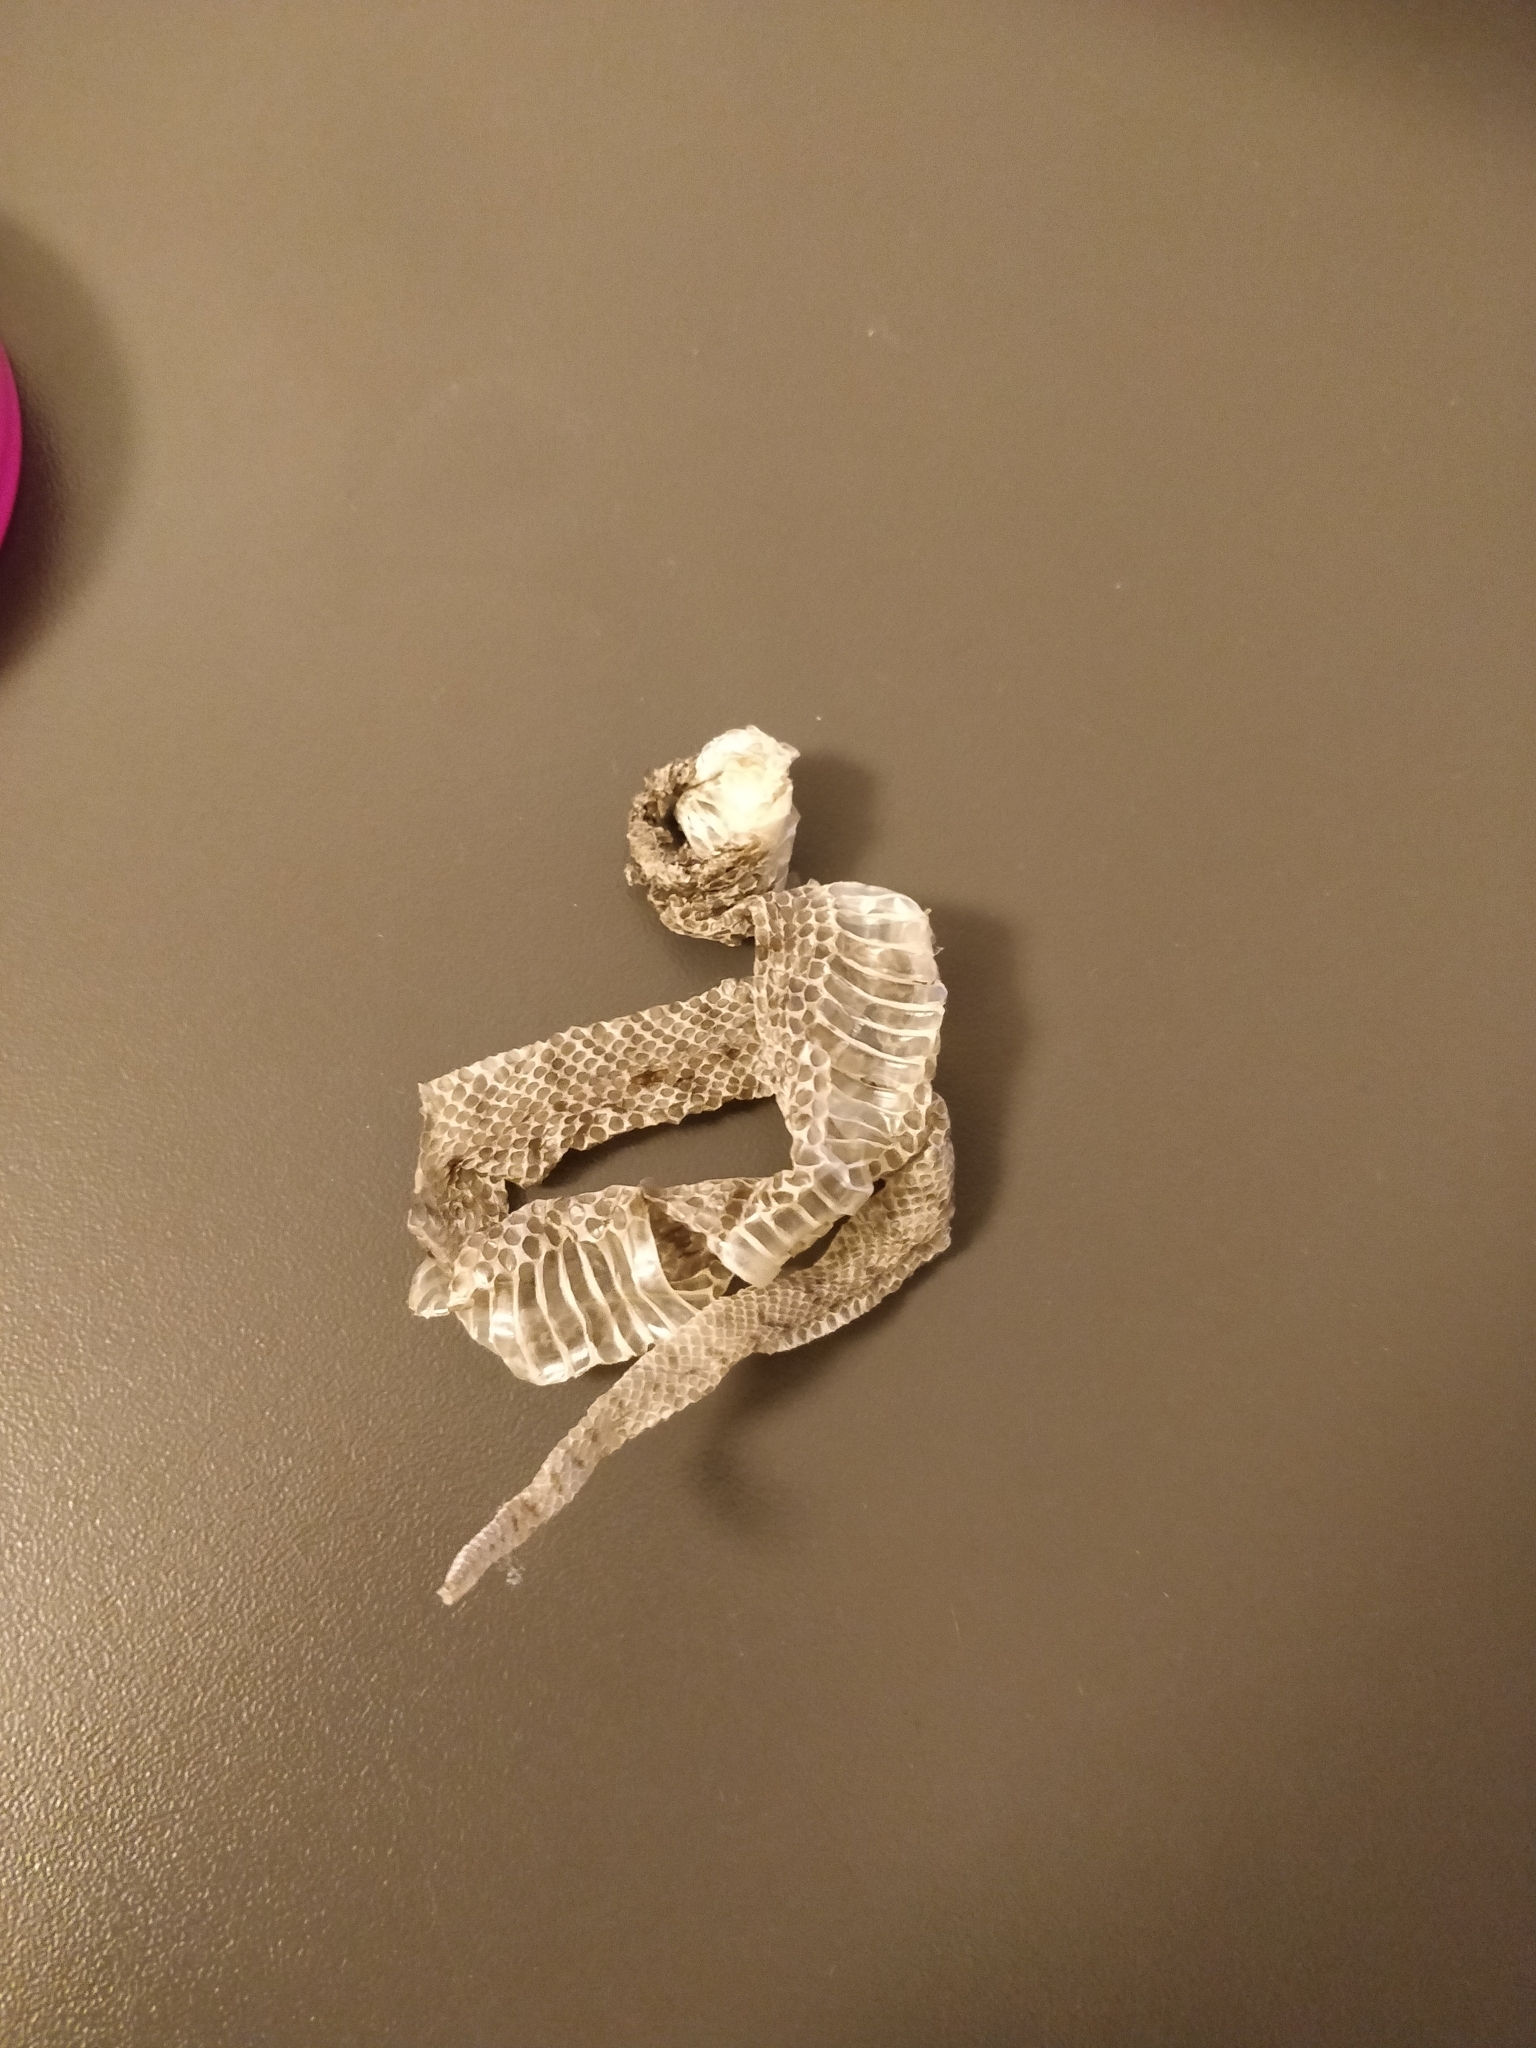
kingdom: Animalia
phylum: Chordata
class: Squamata
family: Viperidae
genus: Vipera
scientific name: Vipera aspis
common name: Asp viper
